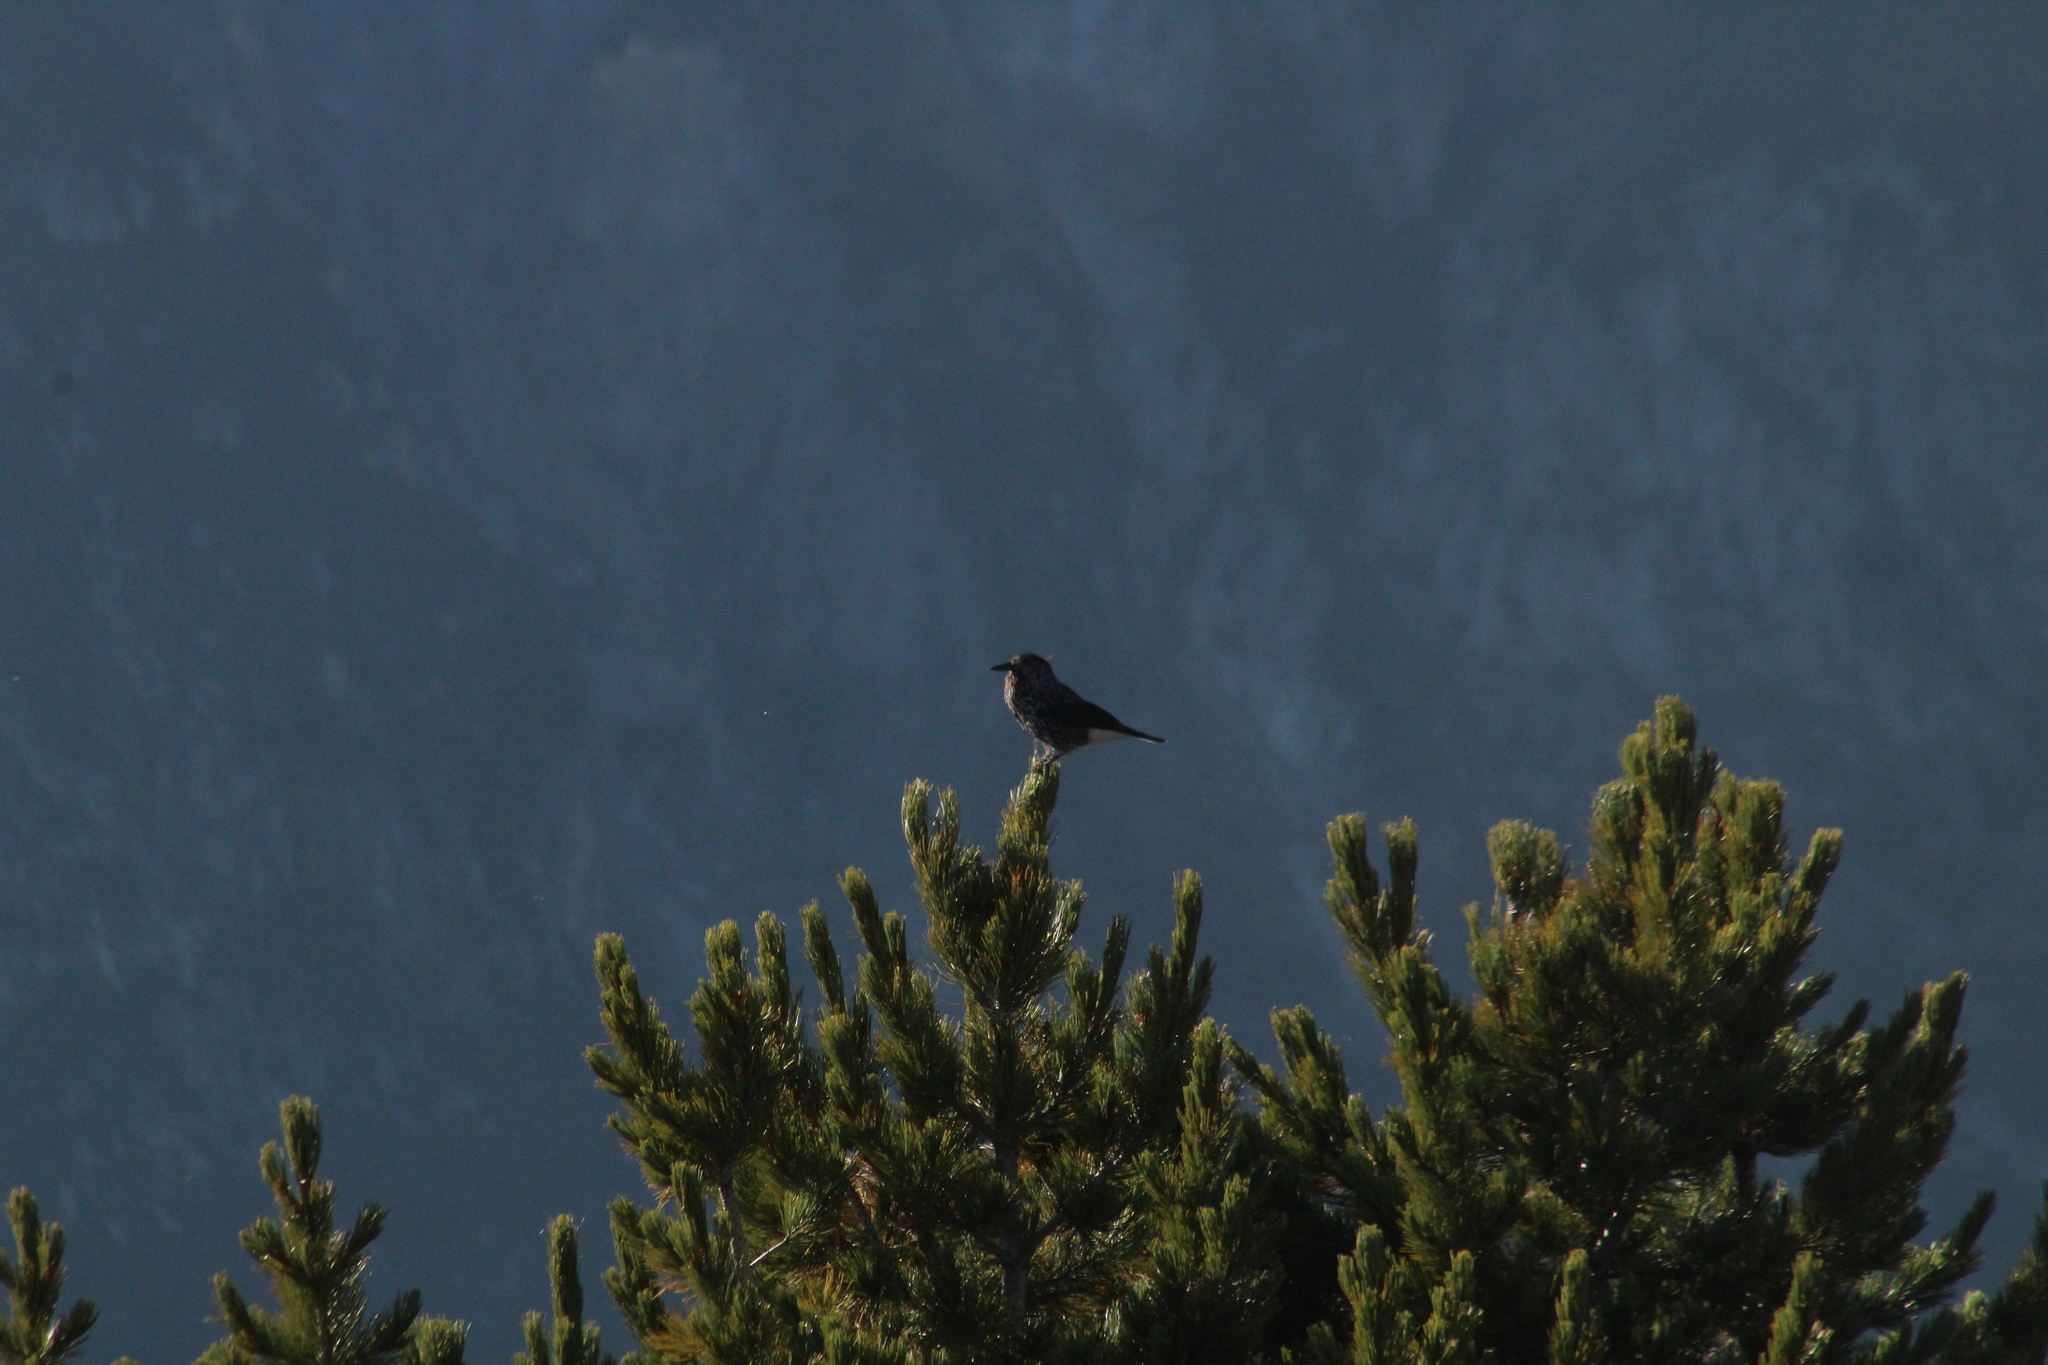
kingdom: Animalia
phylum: Chordata
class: Aves
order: Passeriformes
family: Corvidae
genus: Nucifraga
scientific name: Nucifraga caryocatactes
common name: Spotted nutcracker
